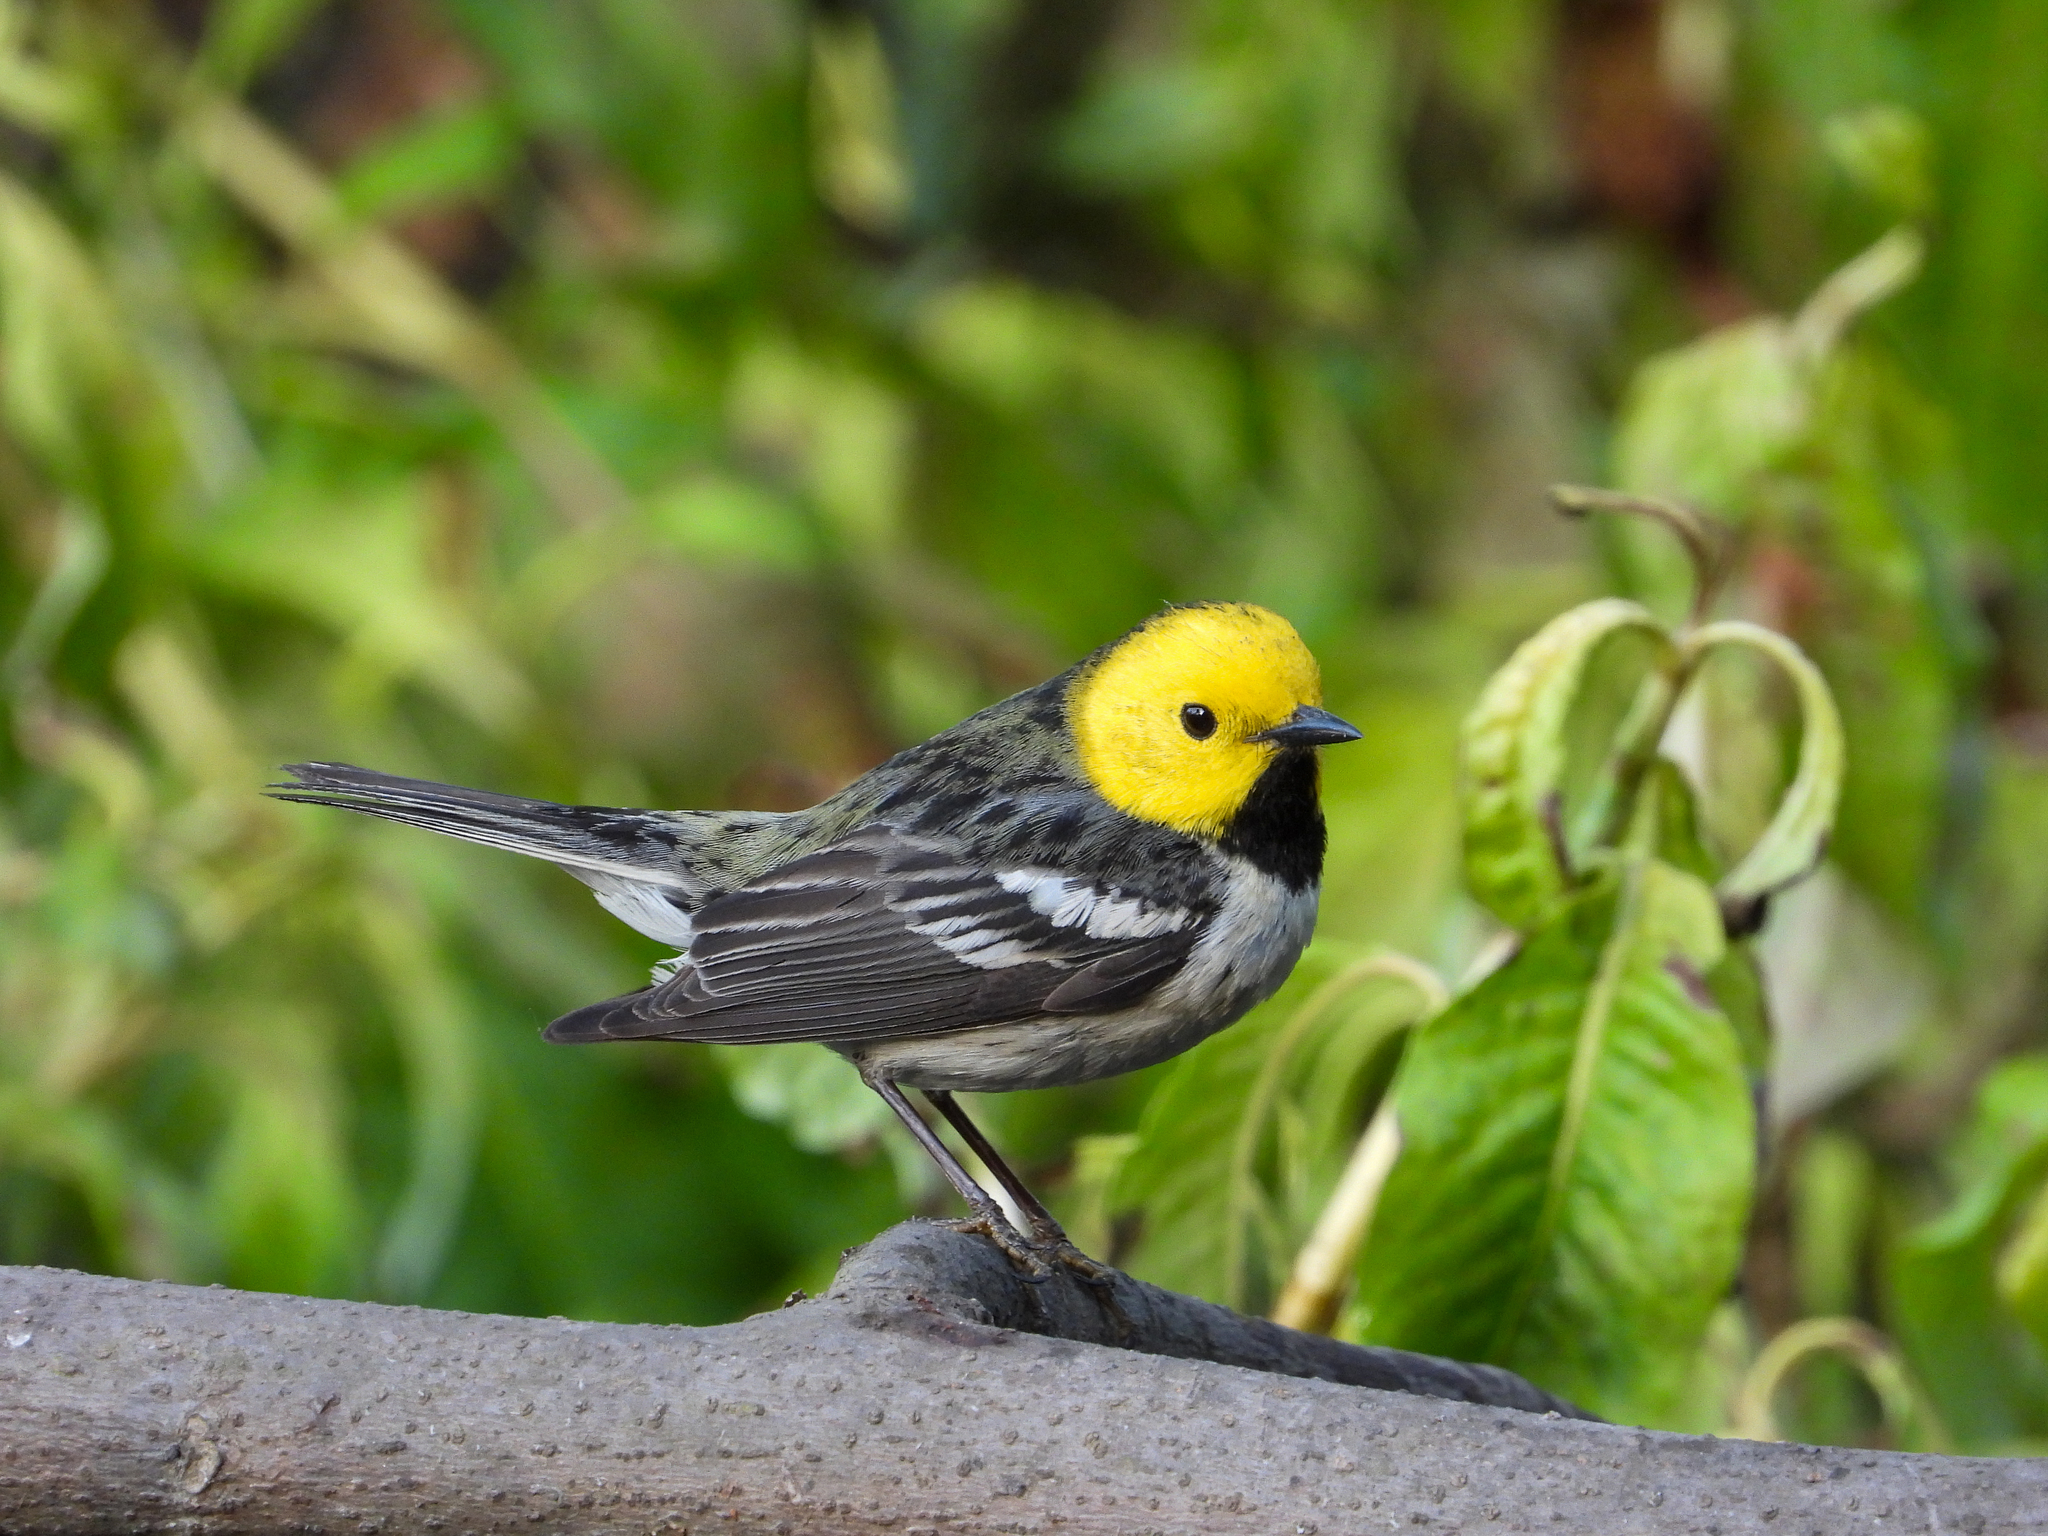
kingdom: Animalia
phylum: Chordata
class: Aves
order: Passeriformes
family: Parulidae
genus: Setophaga
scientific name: Setophaga occidentalis
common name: Hermit warbler
